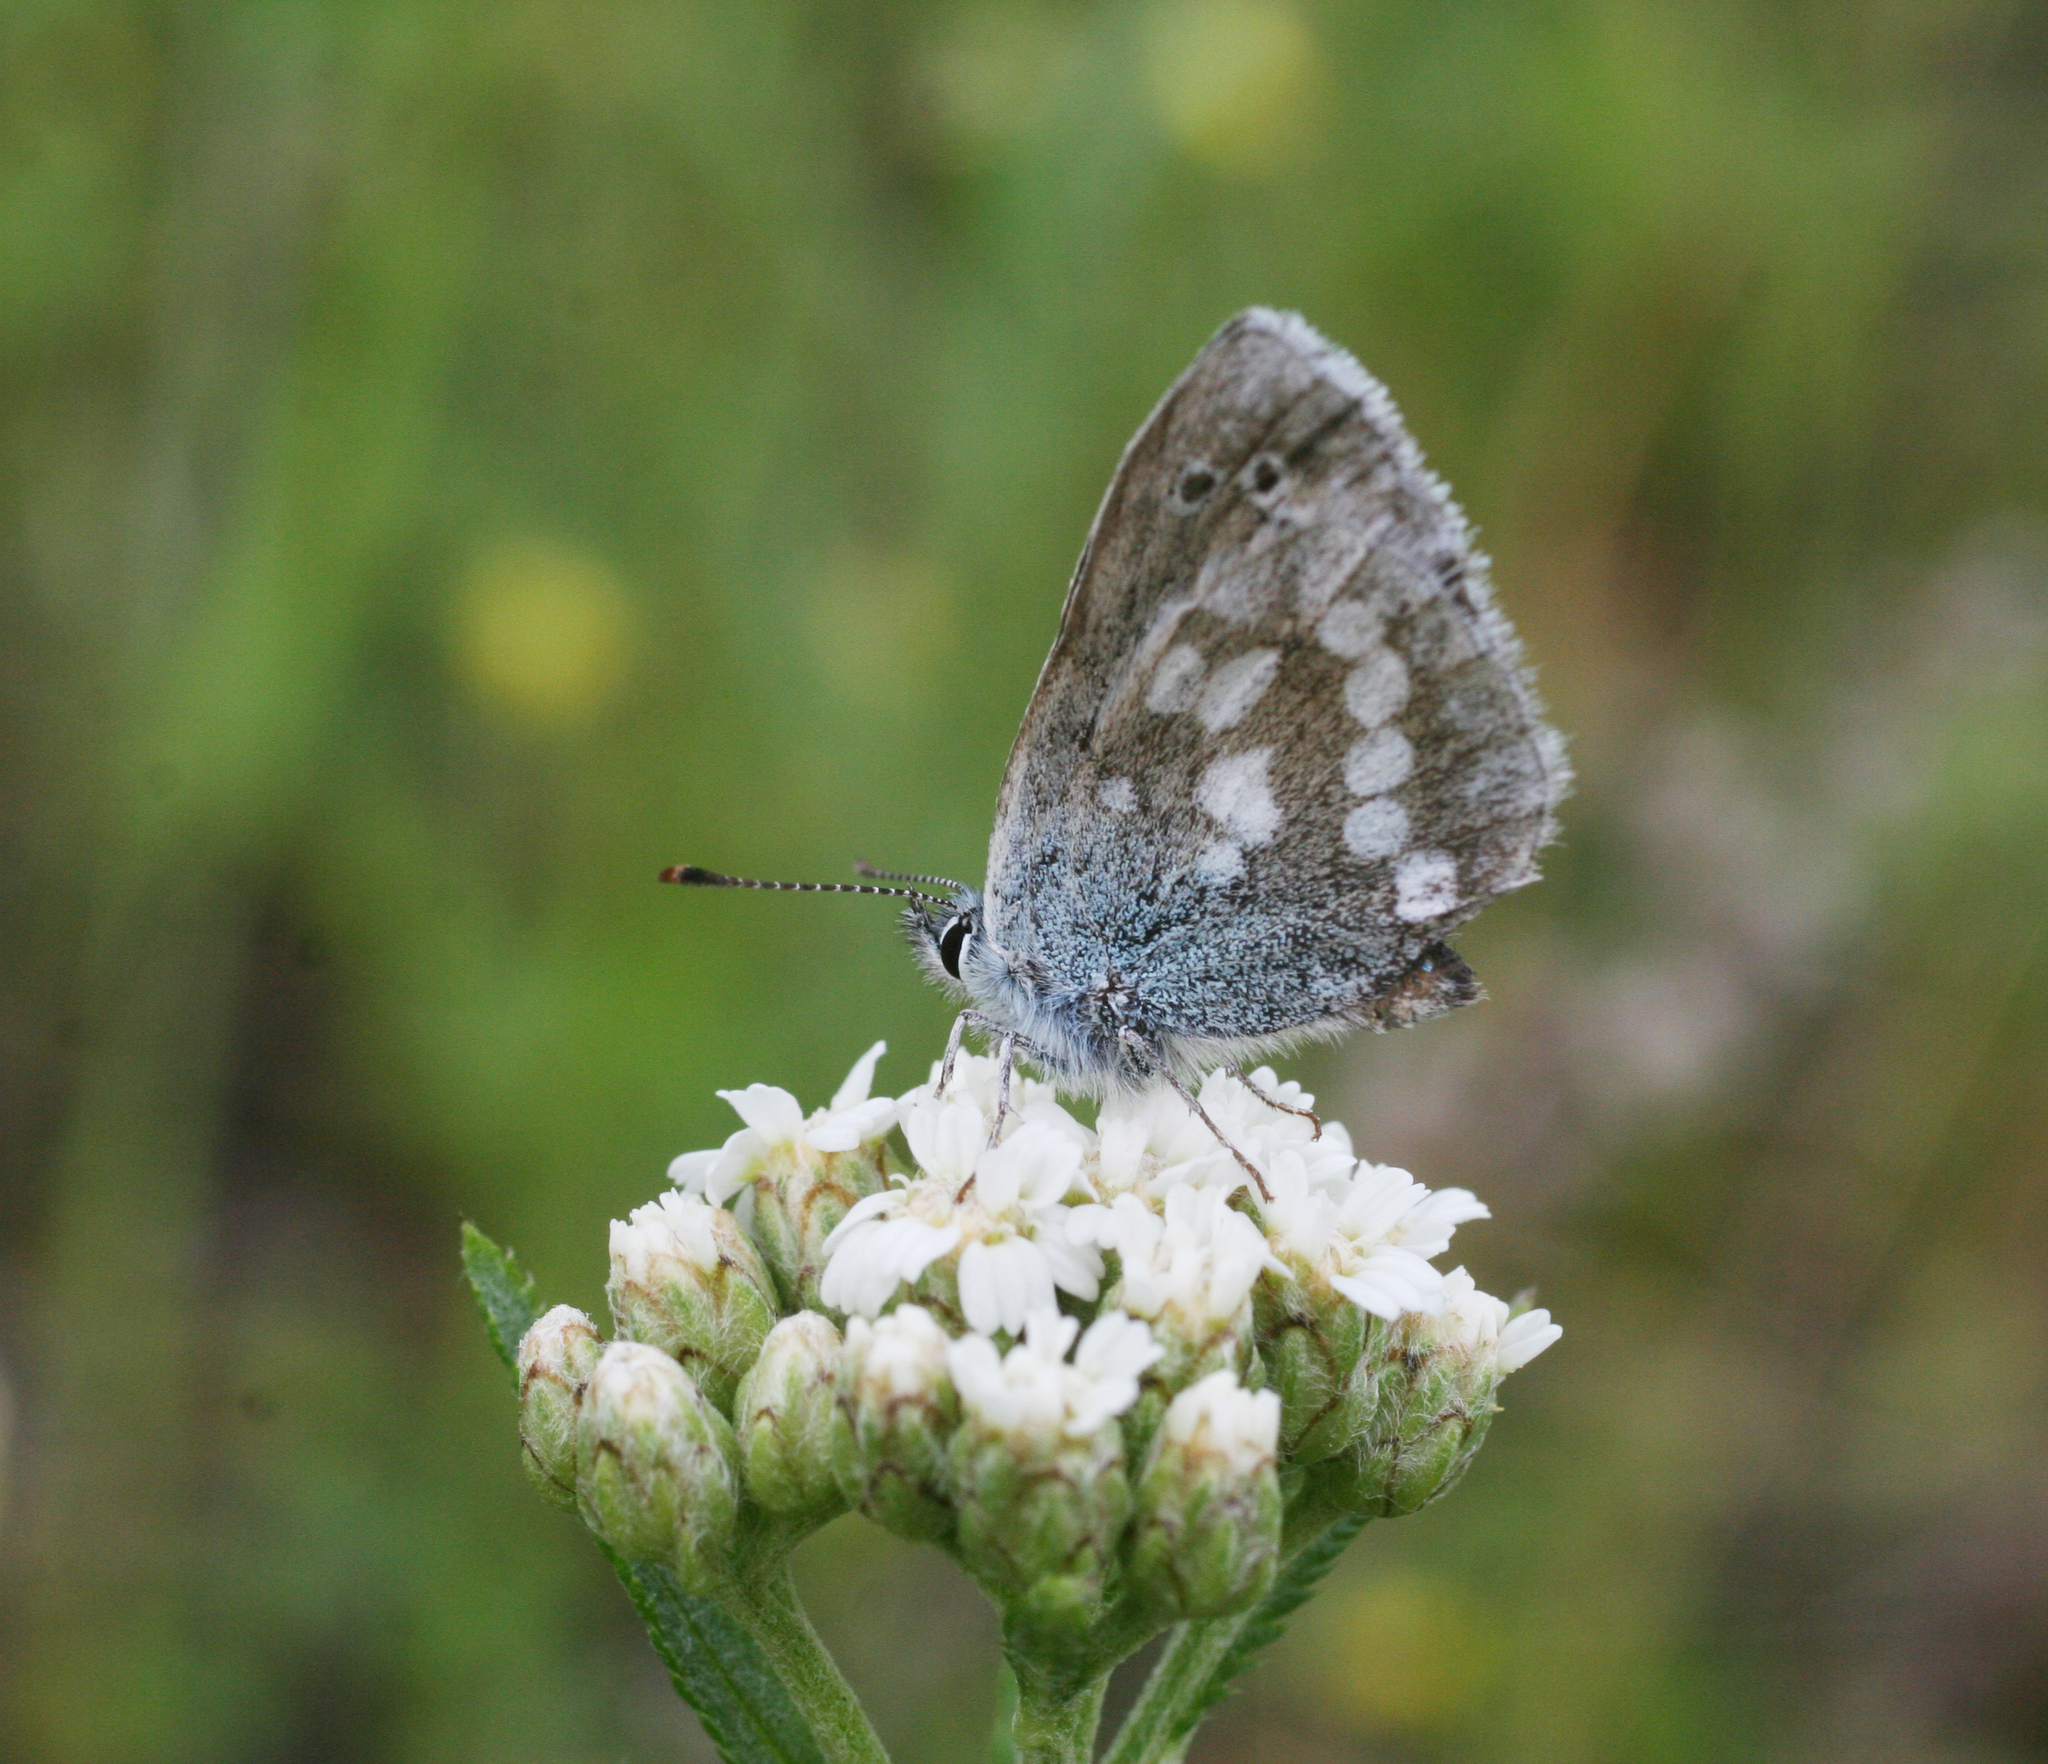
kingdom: Plantae
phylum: Tracheophyta
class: Magnoliopsida
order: Asterales
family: Asteraceae
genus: Achillea
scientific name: Achillea alpina
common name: Siberian yarrow
